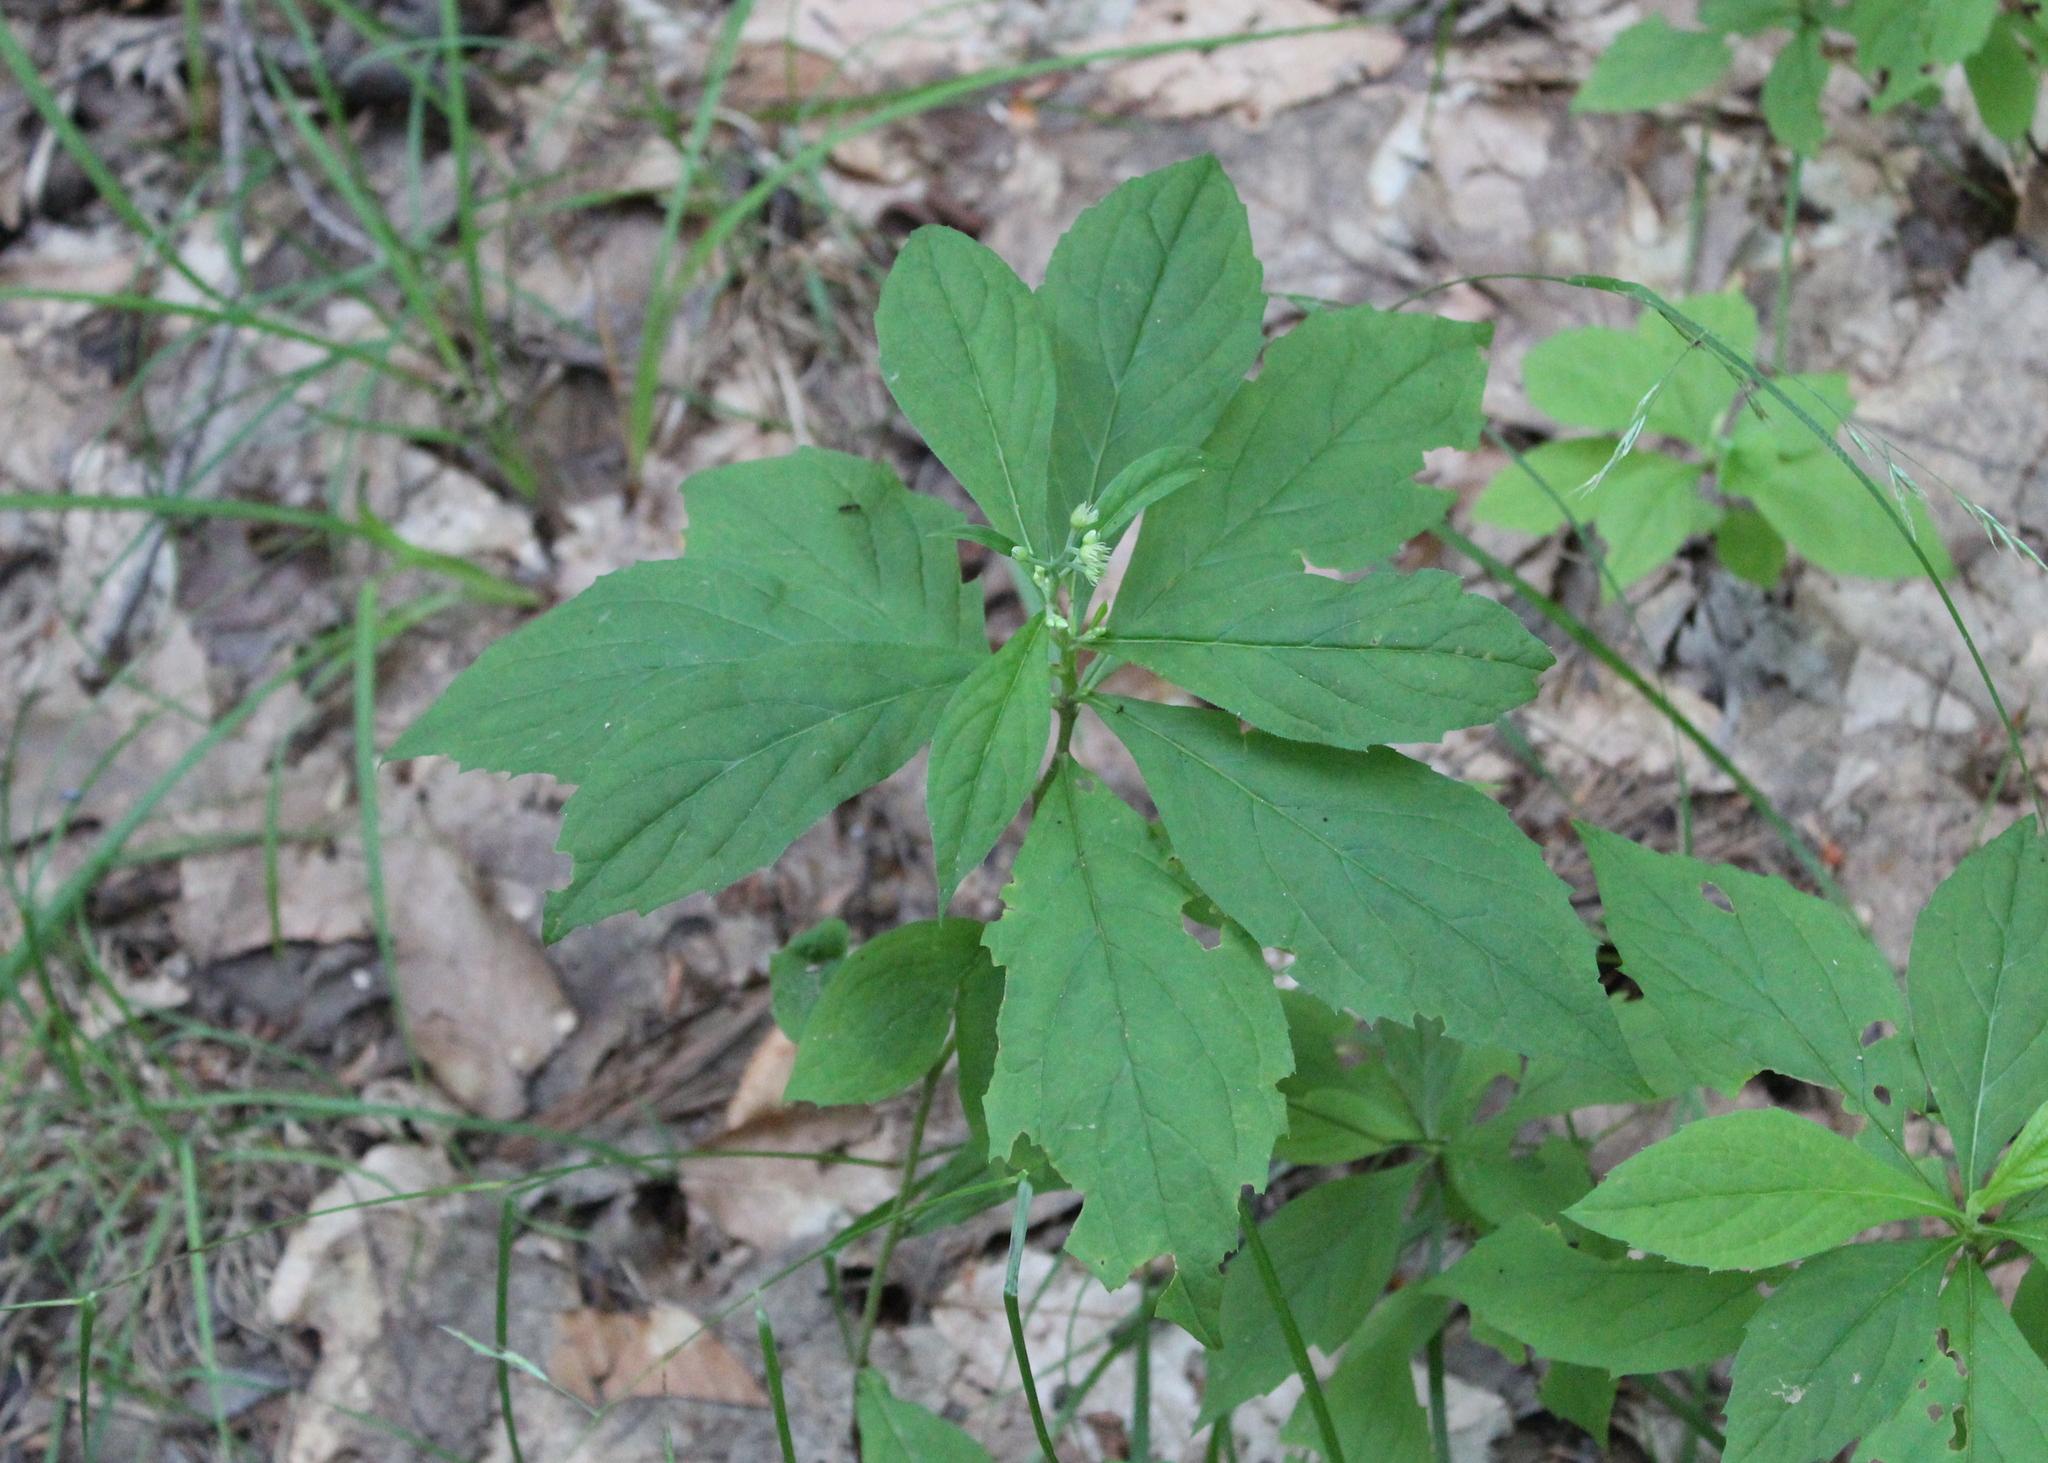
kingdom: Plantae
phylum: Tracheophyta
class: Magnoliopsida
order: Asterales
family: Asteraceae
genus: Oclemena
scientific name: Oclemena acuminata
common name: Mountain aster
